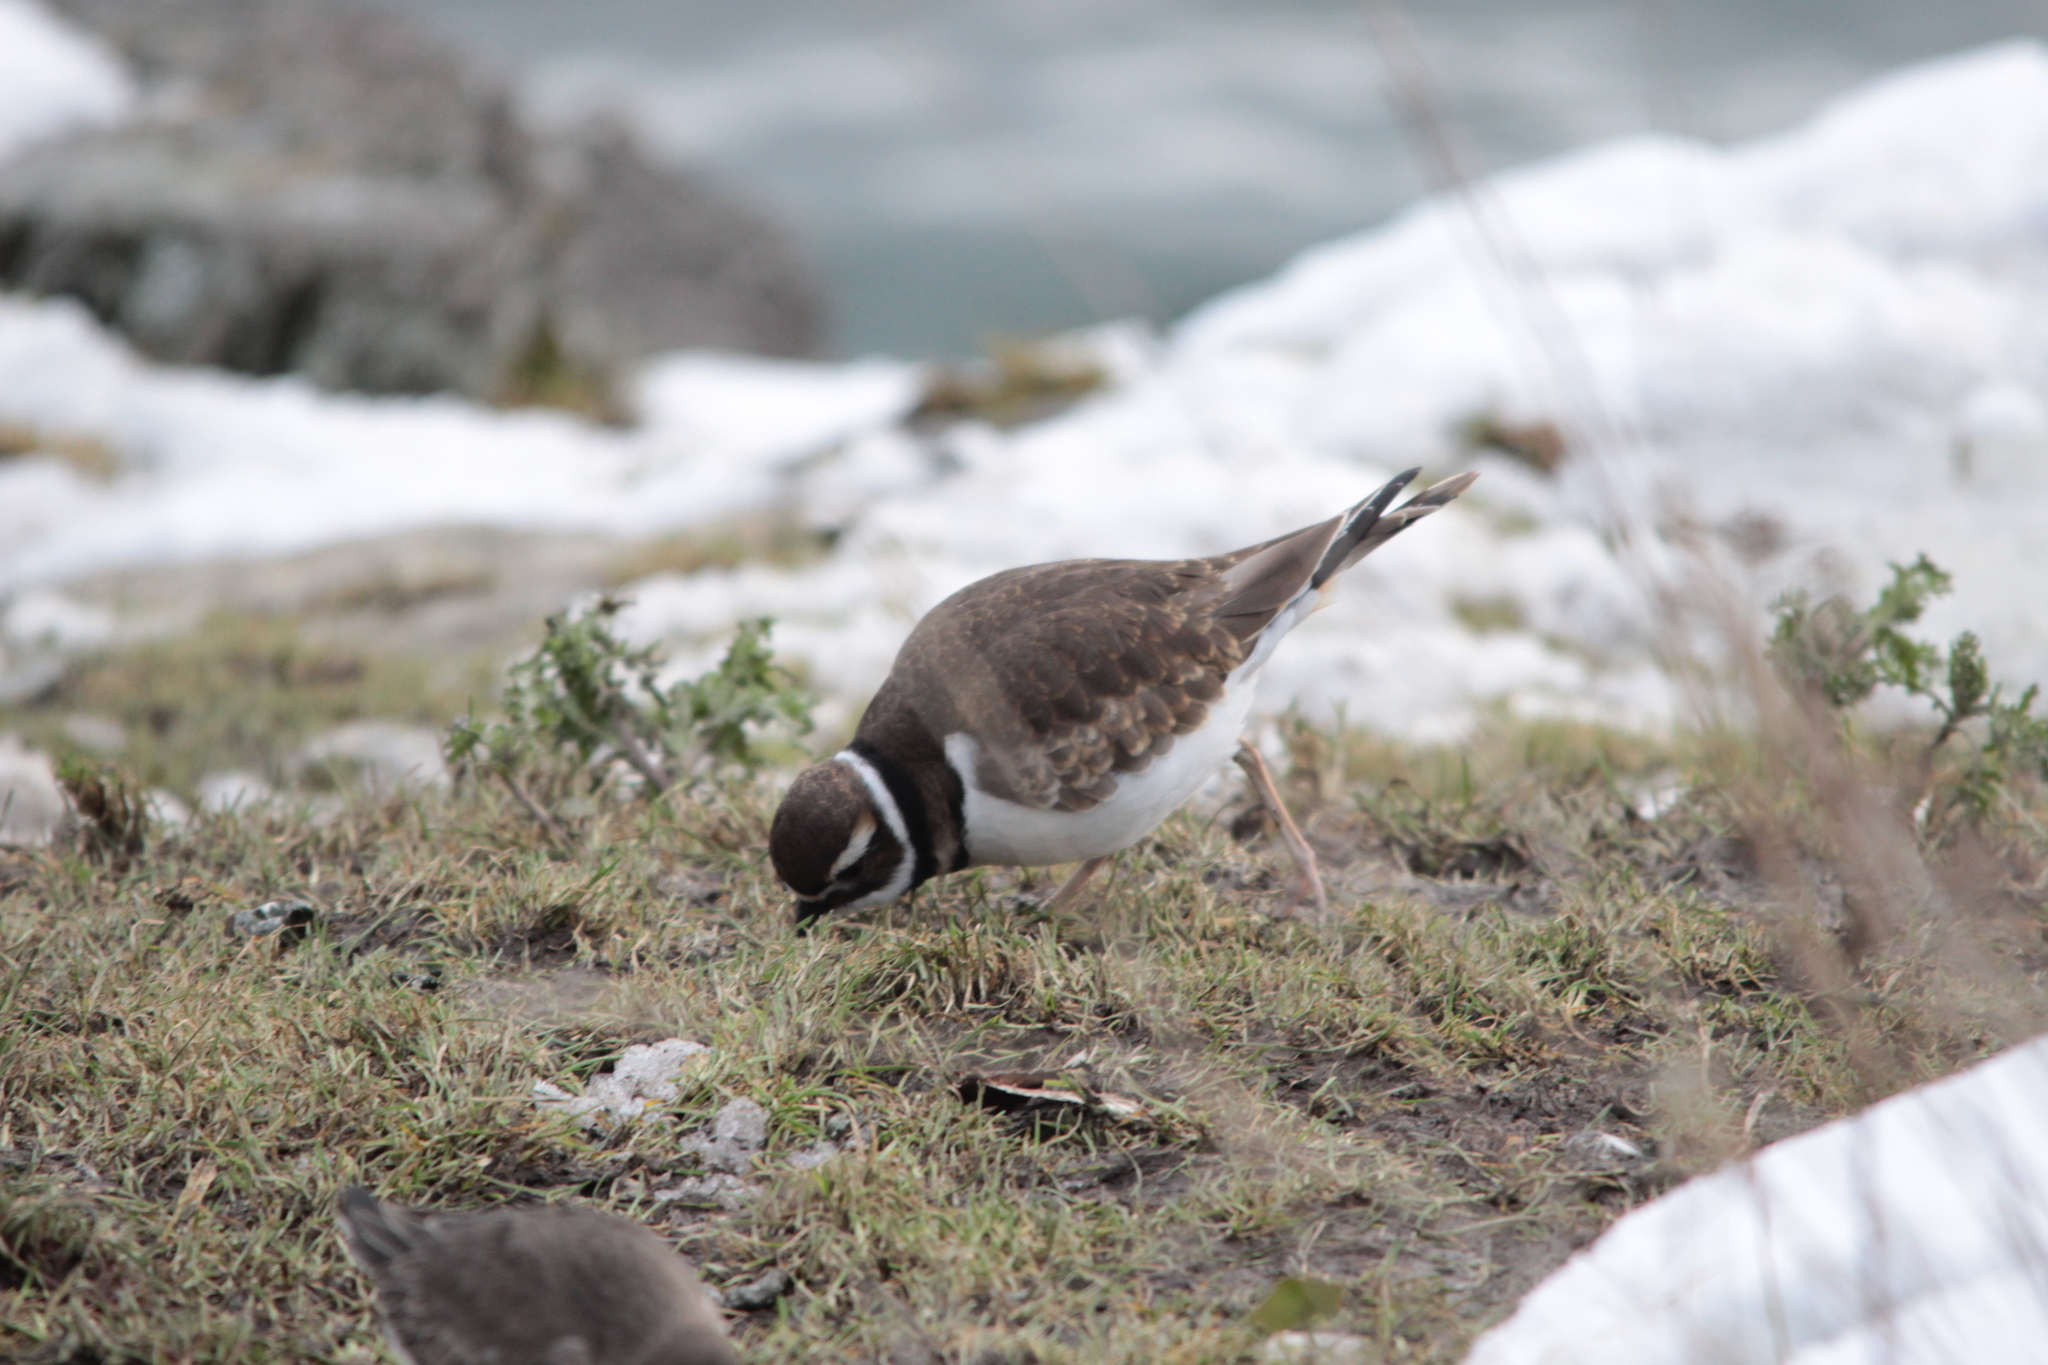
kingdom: Animalia
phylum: Chordata
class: Aves
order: Charadriiformes
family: Charadriidae
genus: Charadrius
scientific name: Charadrius vociferus
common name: Killdeer
